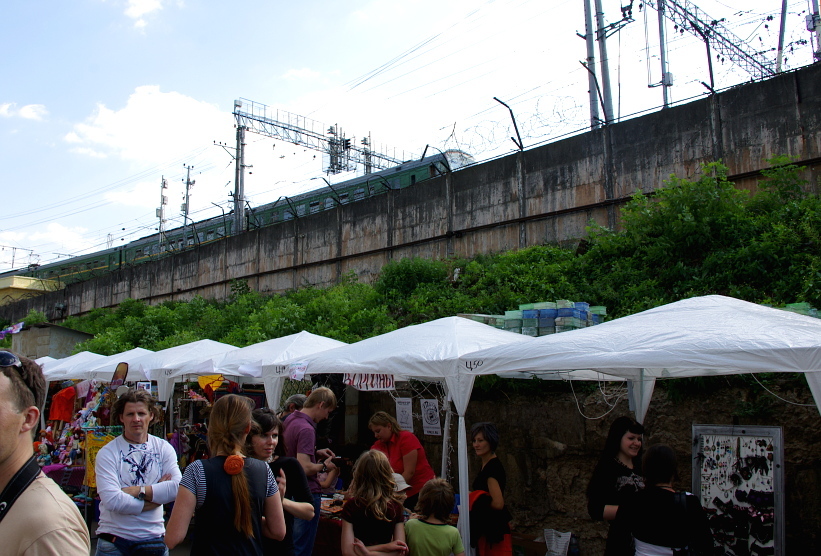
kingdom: Plantae
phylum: Tracheophyta
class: Magnoliopsida
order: Ericales
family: Balsaminaceae
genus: Impatiens
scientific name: Impatiens parviflora
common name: Small balsam
